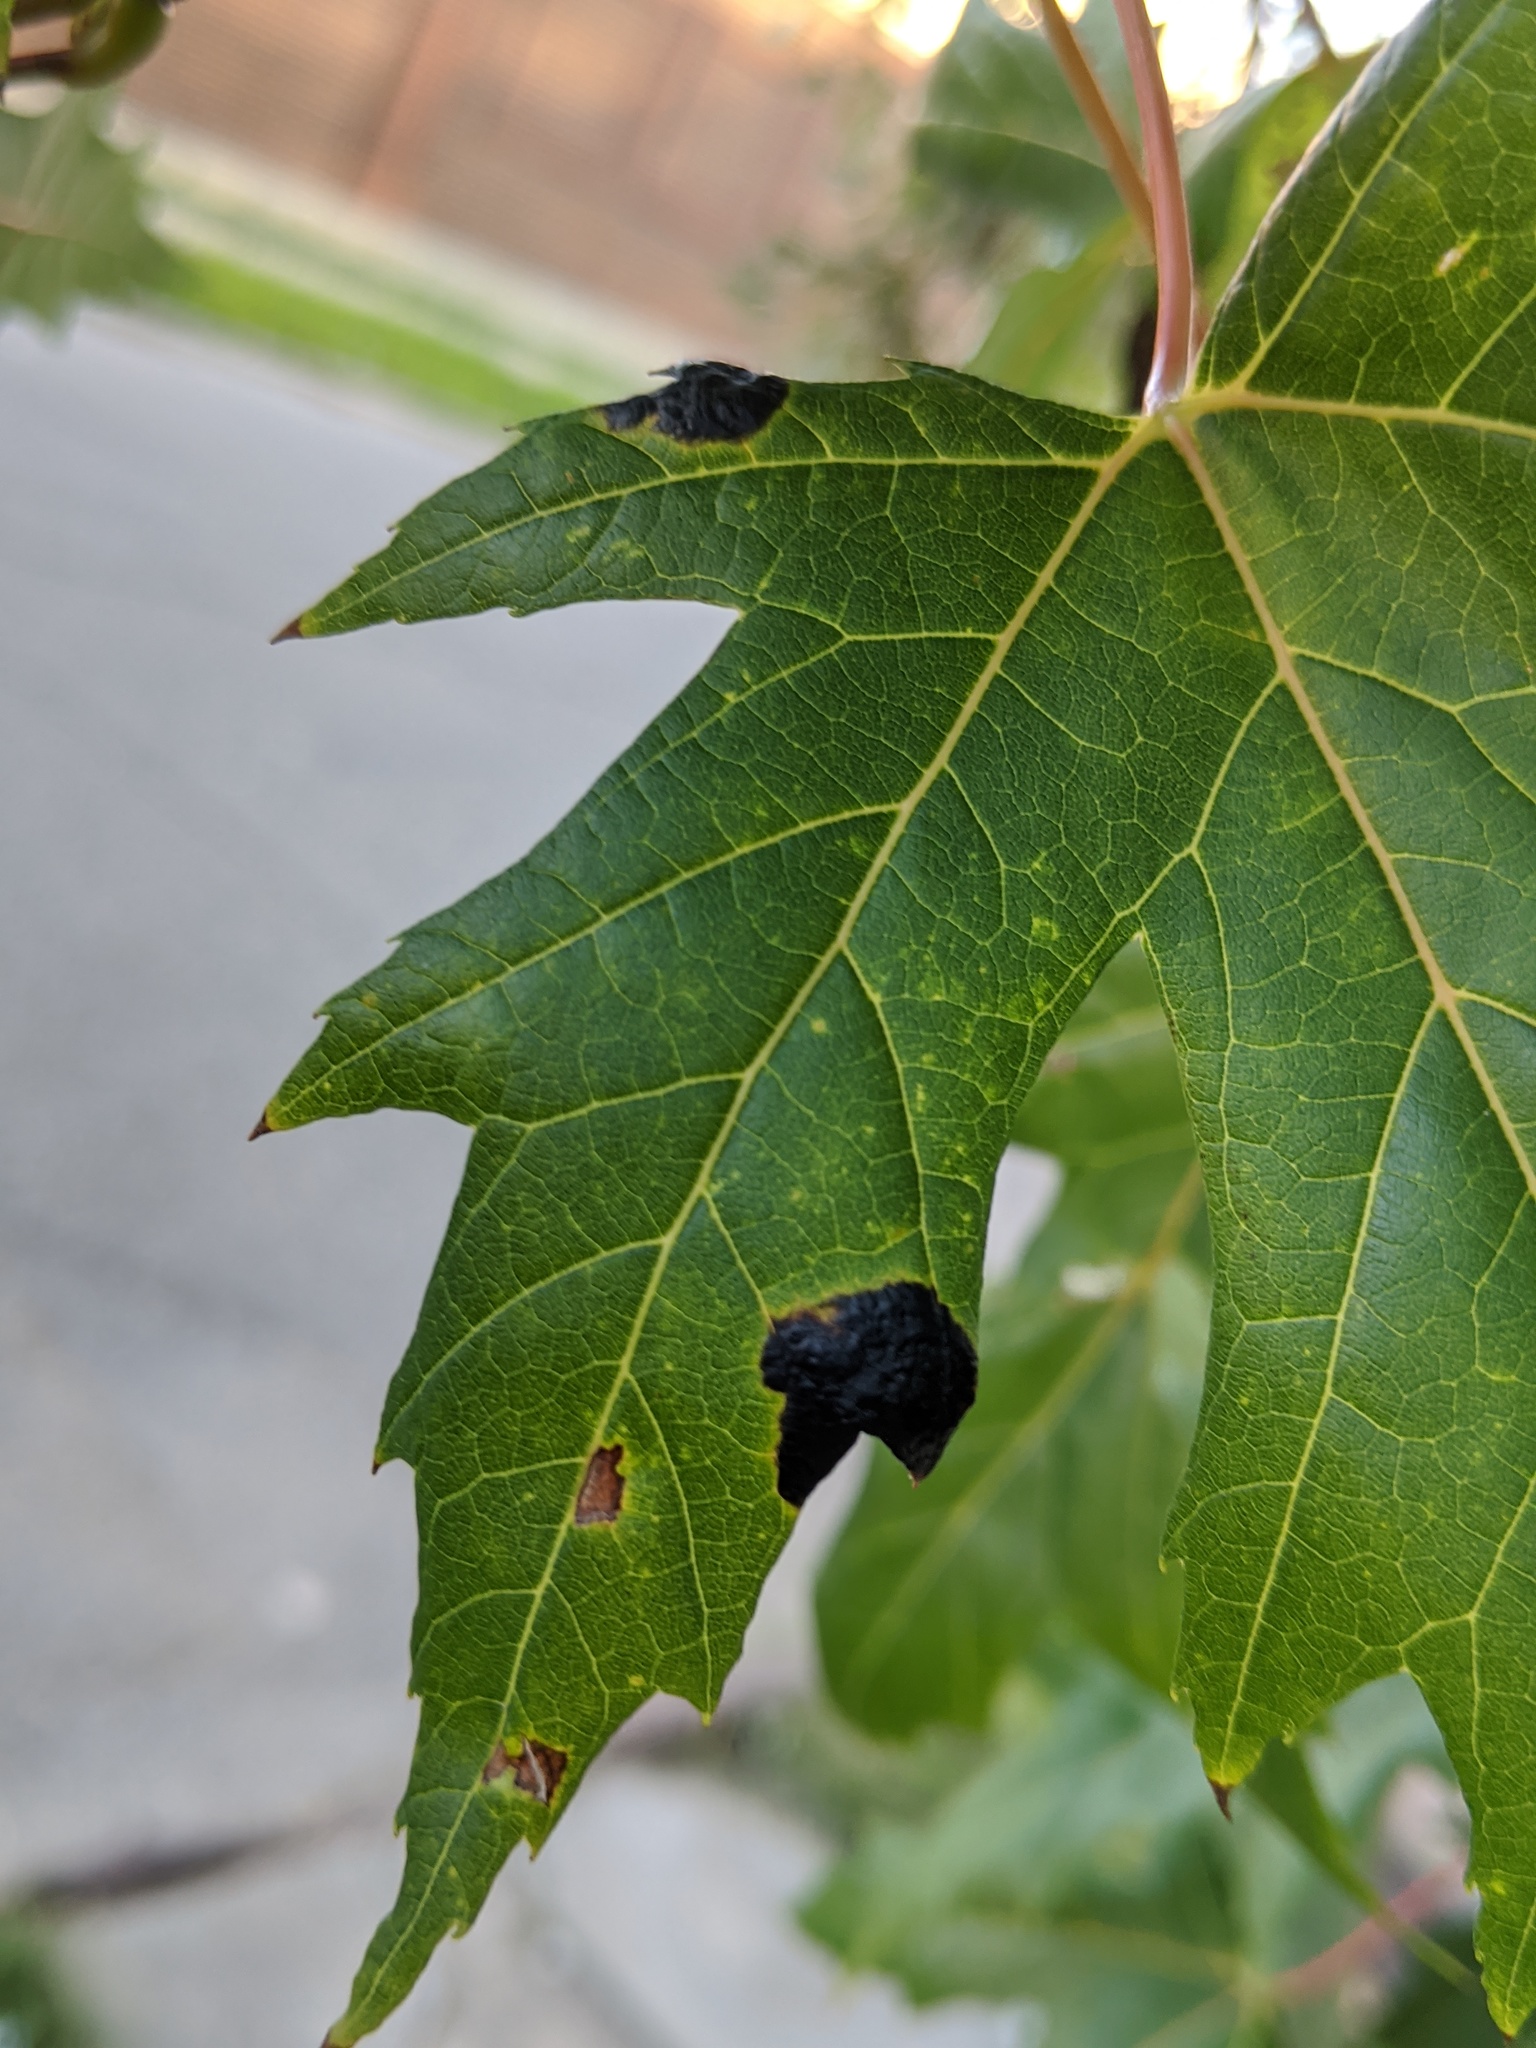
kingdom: Fungi
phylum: Ascomycota
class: Leotiomycetes
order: Rhytismatales
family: Rhytismataceae
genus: Rhytisma
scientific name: Rhytisma americanum
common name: American tar spot
